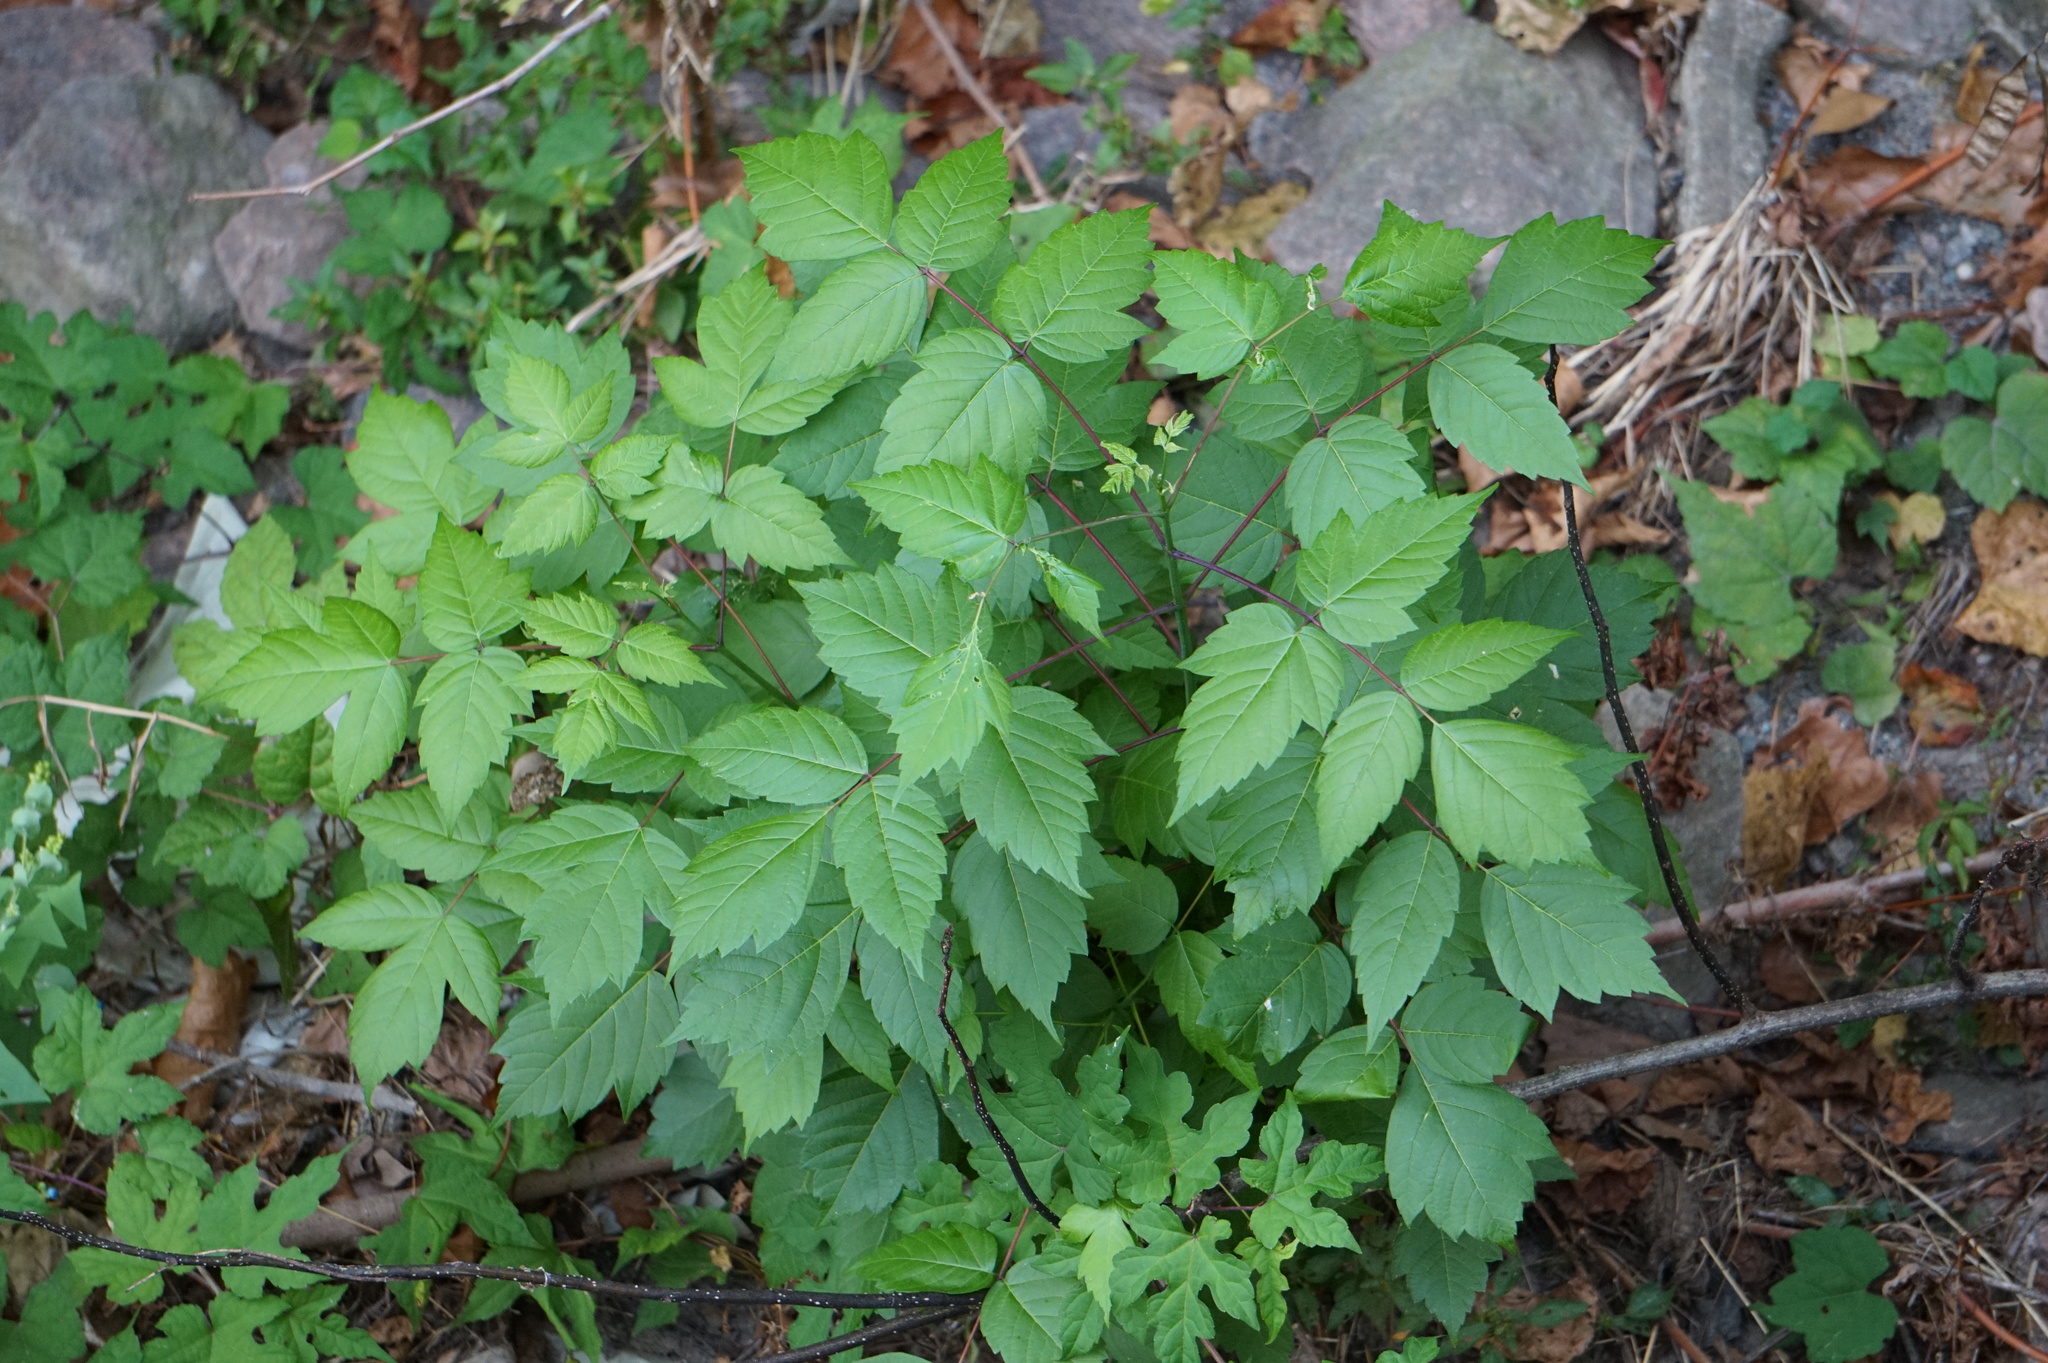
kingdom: Plantae
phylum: Tracheophyta
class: Magnoliopsida
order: Sapindales
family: Sapindaceae
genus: Acer
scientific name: Acer negundo
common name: Ashleaf maple
